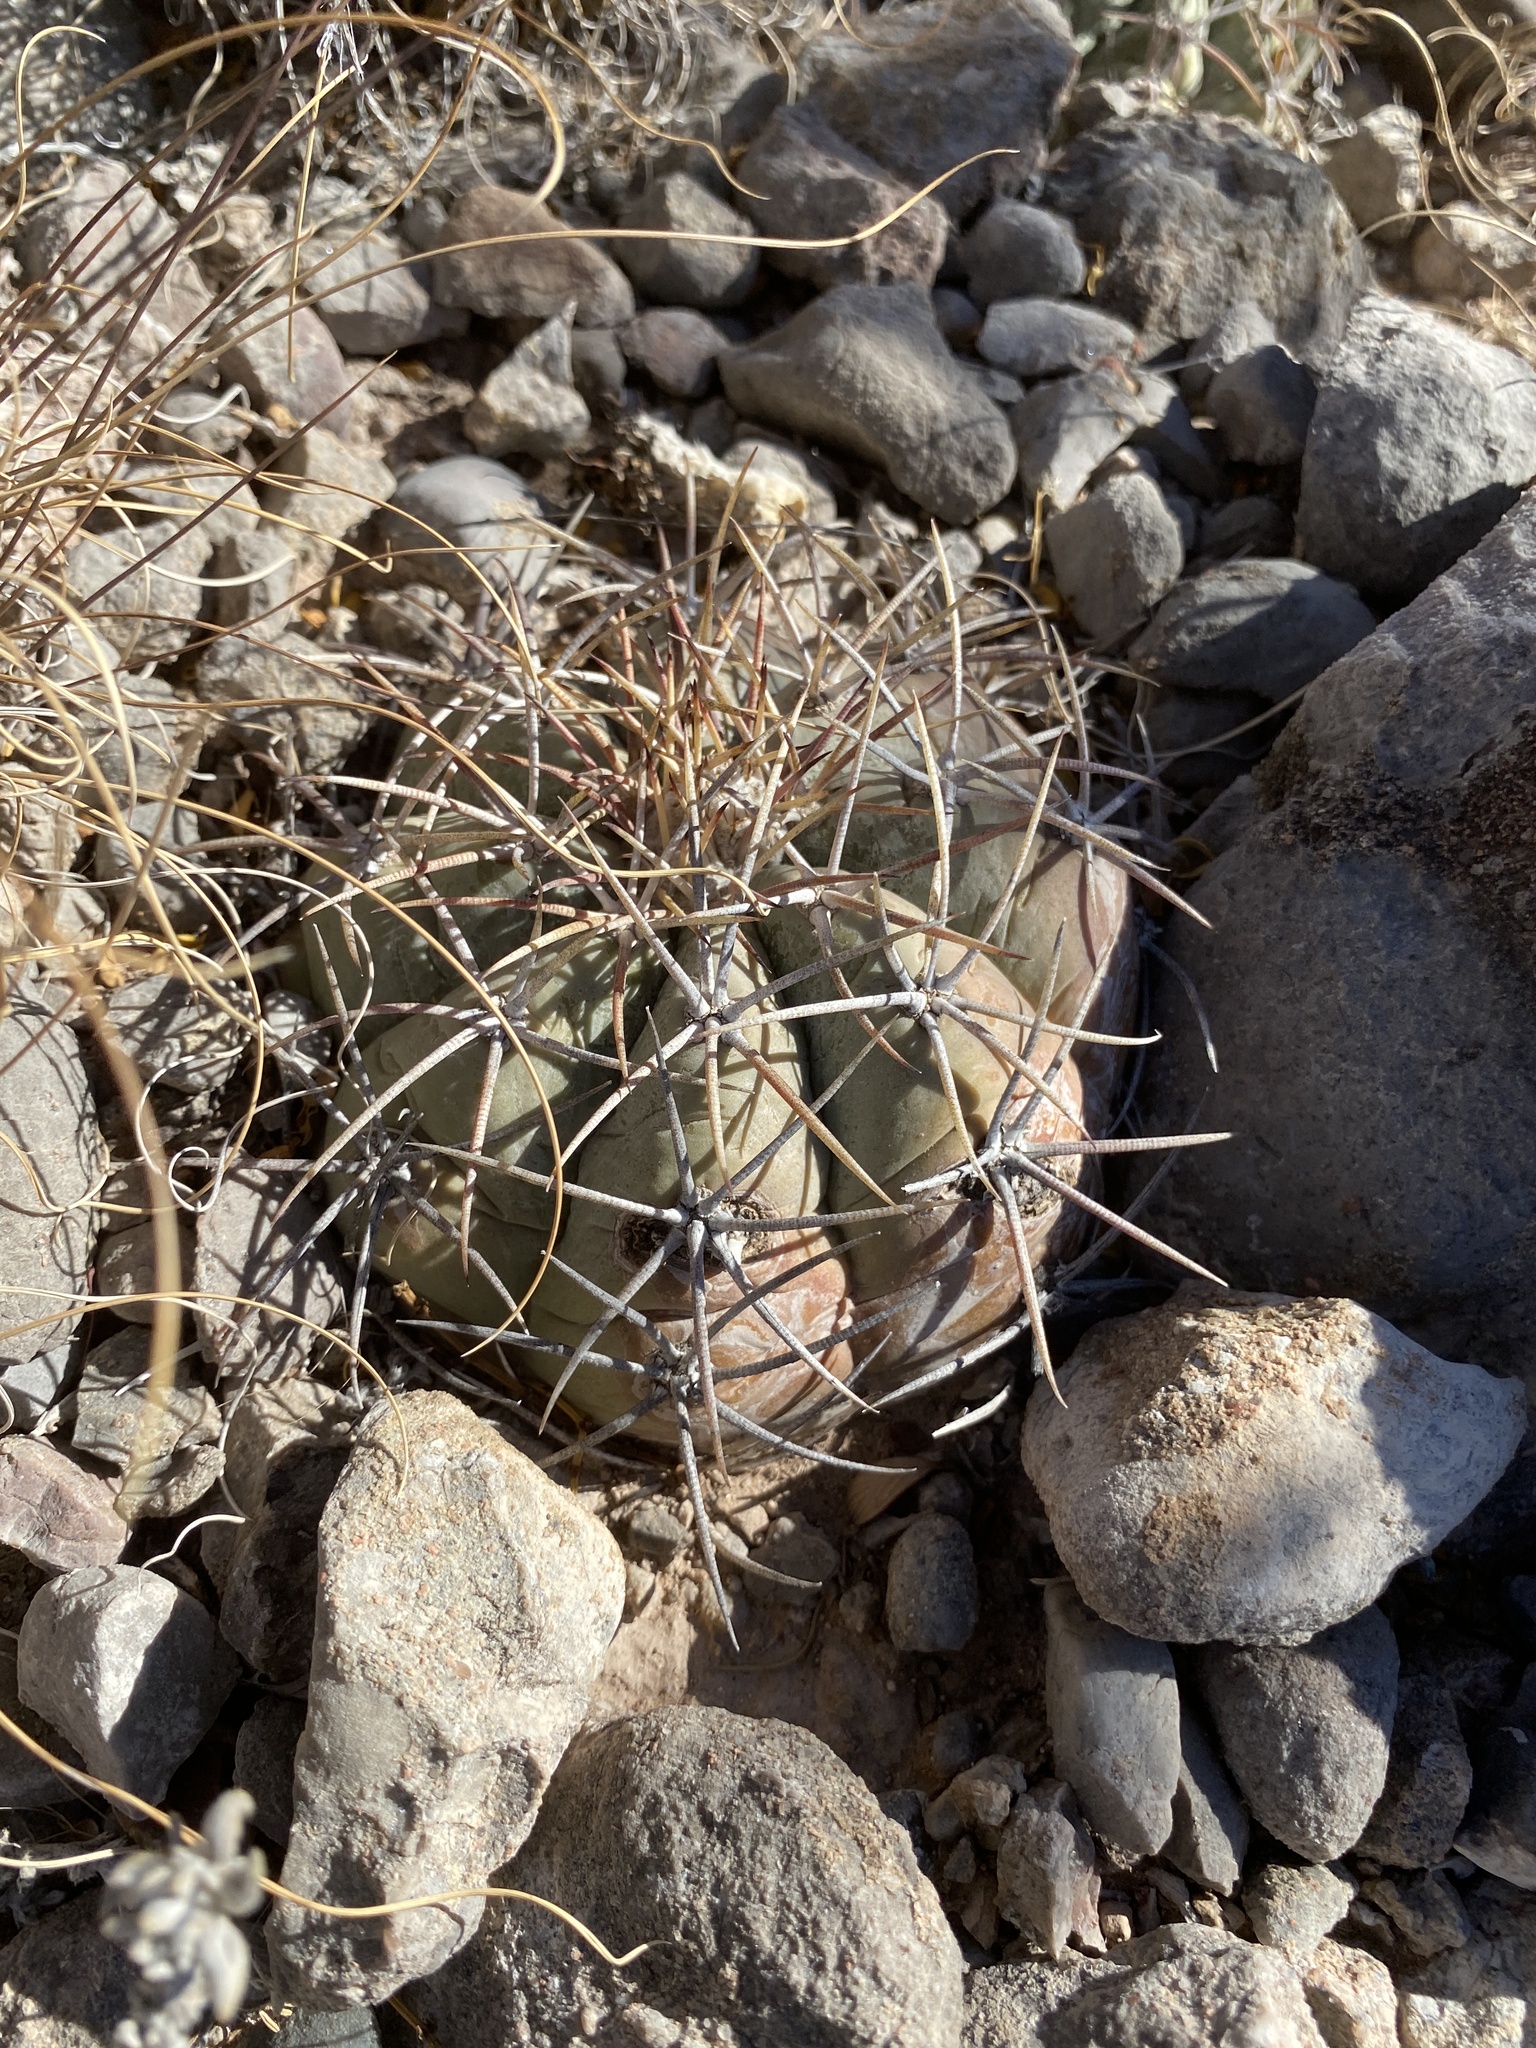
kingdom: Plantae
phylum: Tracheophyta
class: Magnoliopsida
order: Caryophyllales
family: Cactaceae
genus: Echinocactus
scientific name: Echinocactus horizonthalonius
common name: Devilshead
